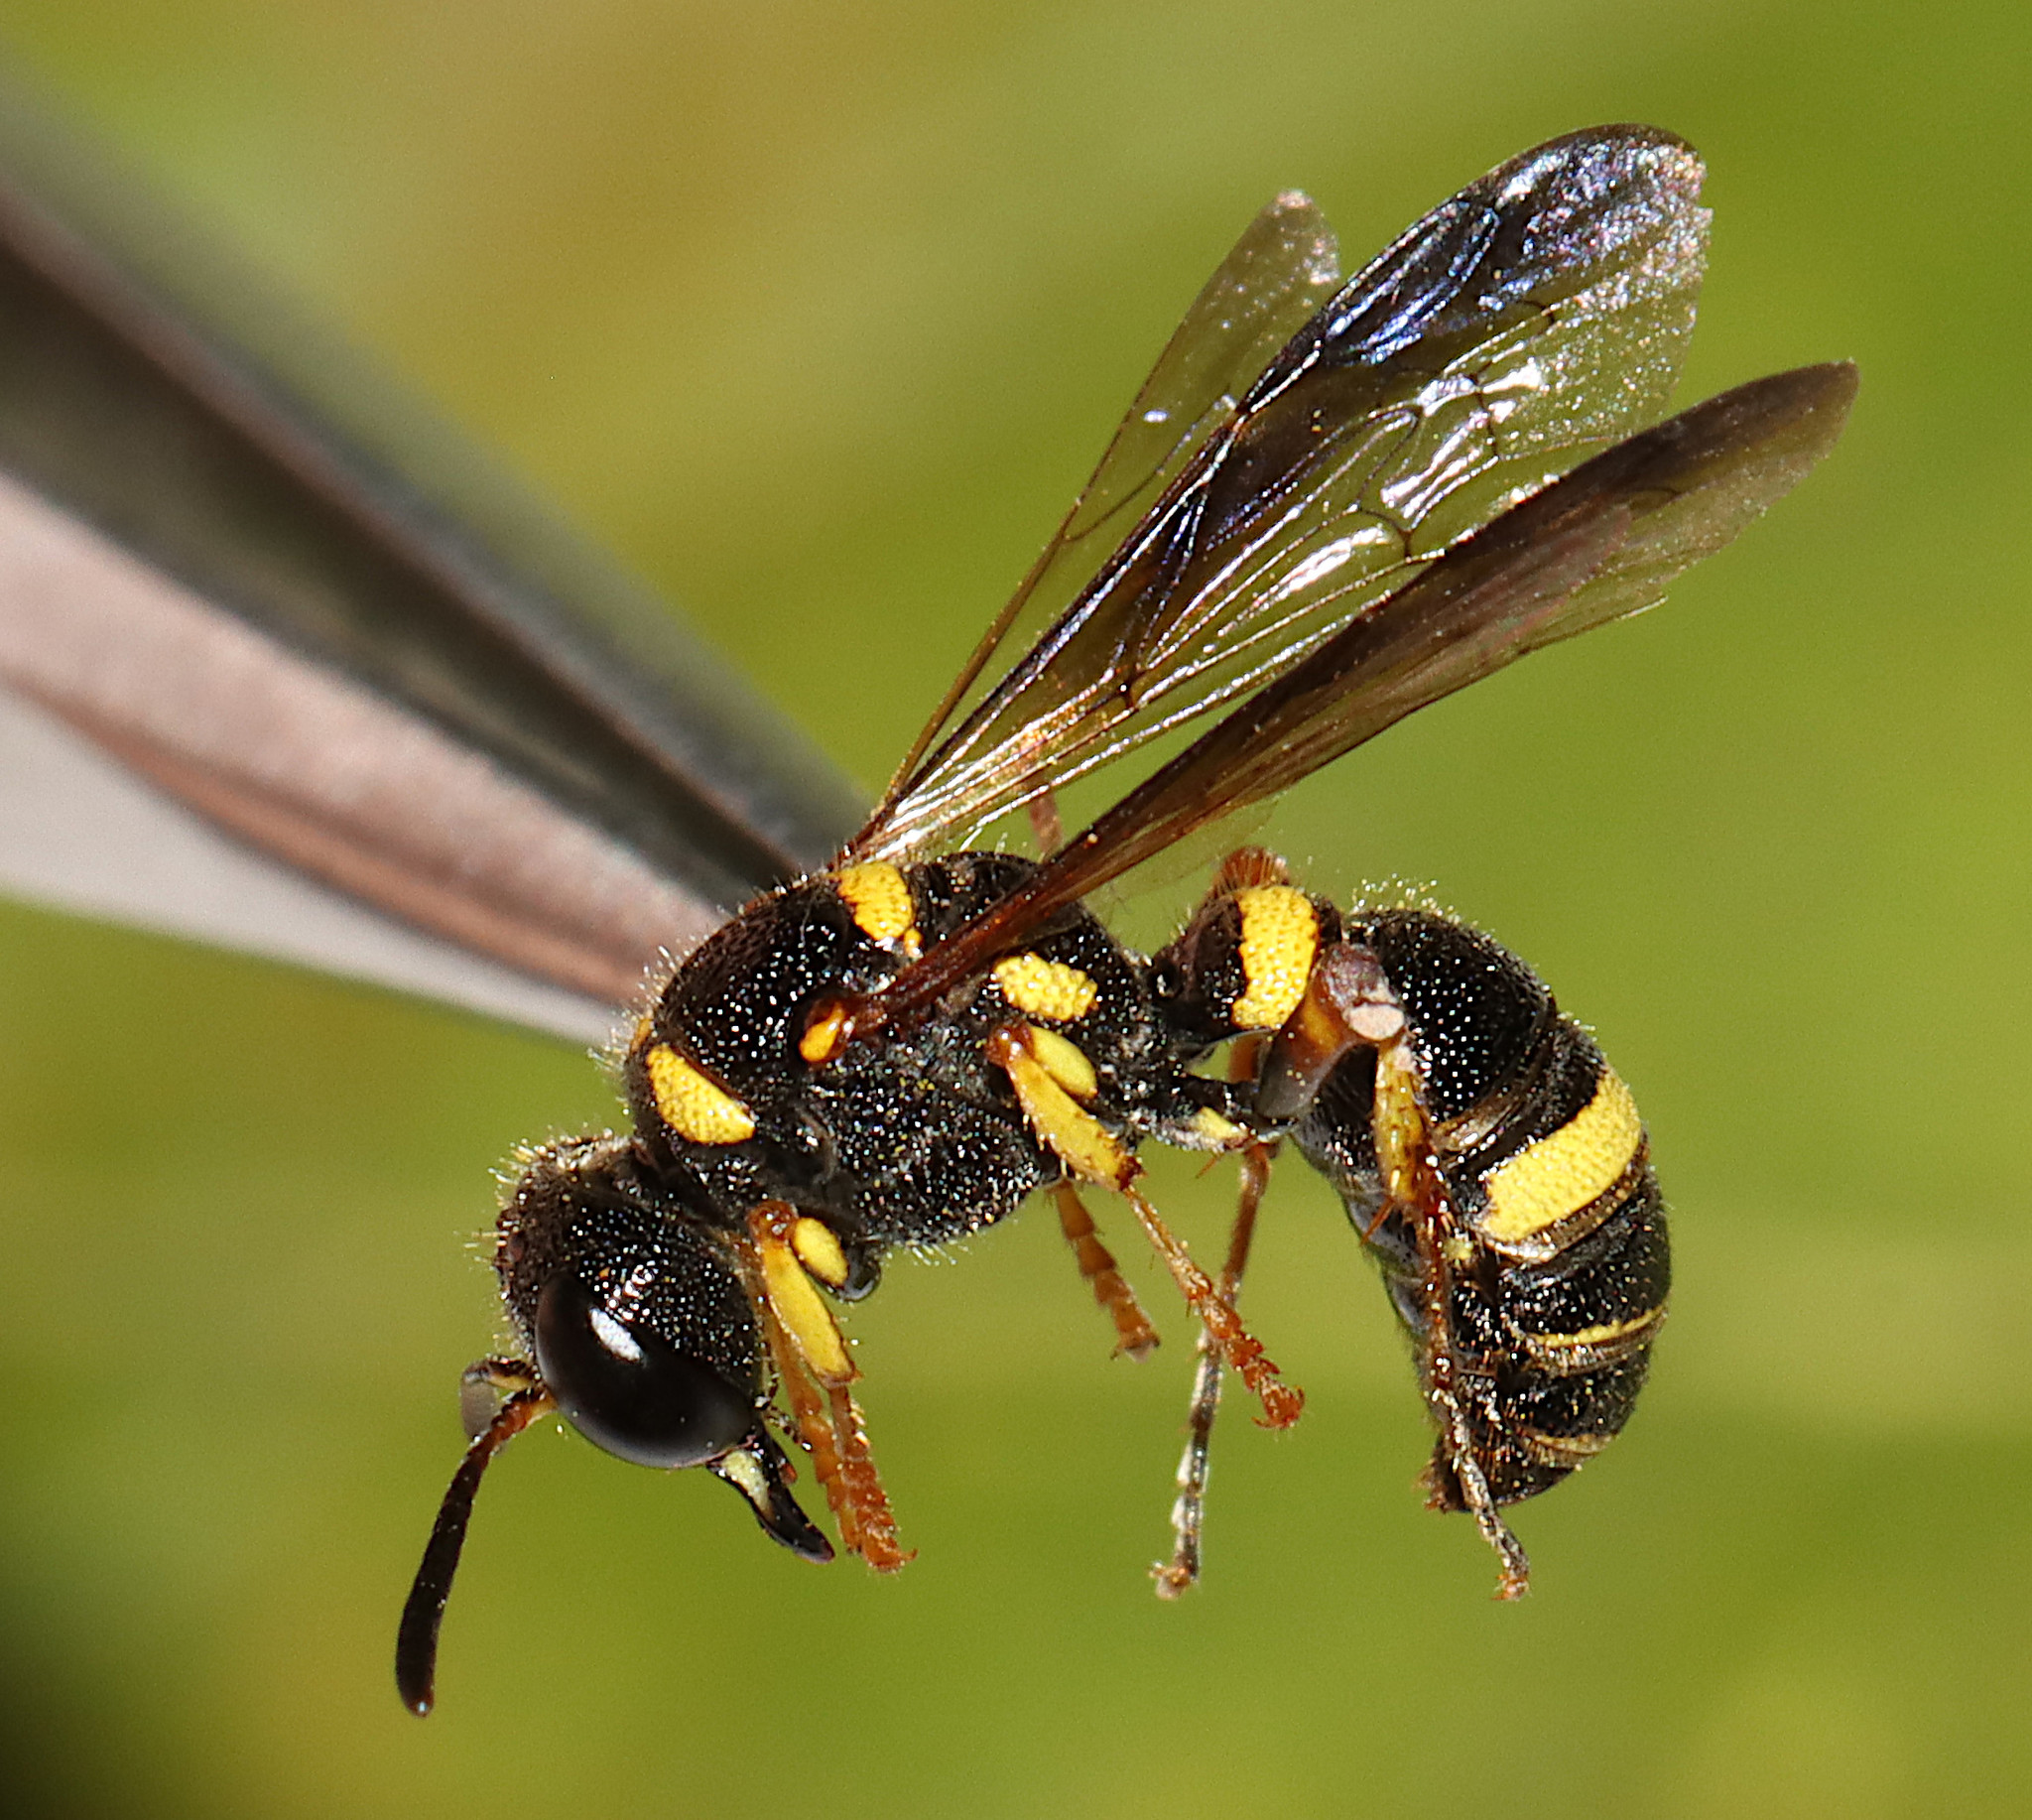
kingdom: Animalia
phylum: Arthropoda
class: Insecta
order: Hymenoptera
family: Crabronidae
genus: Cerceris
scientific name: Cerceris insolita
